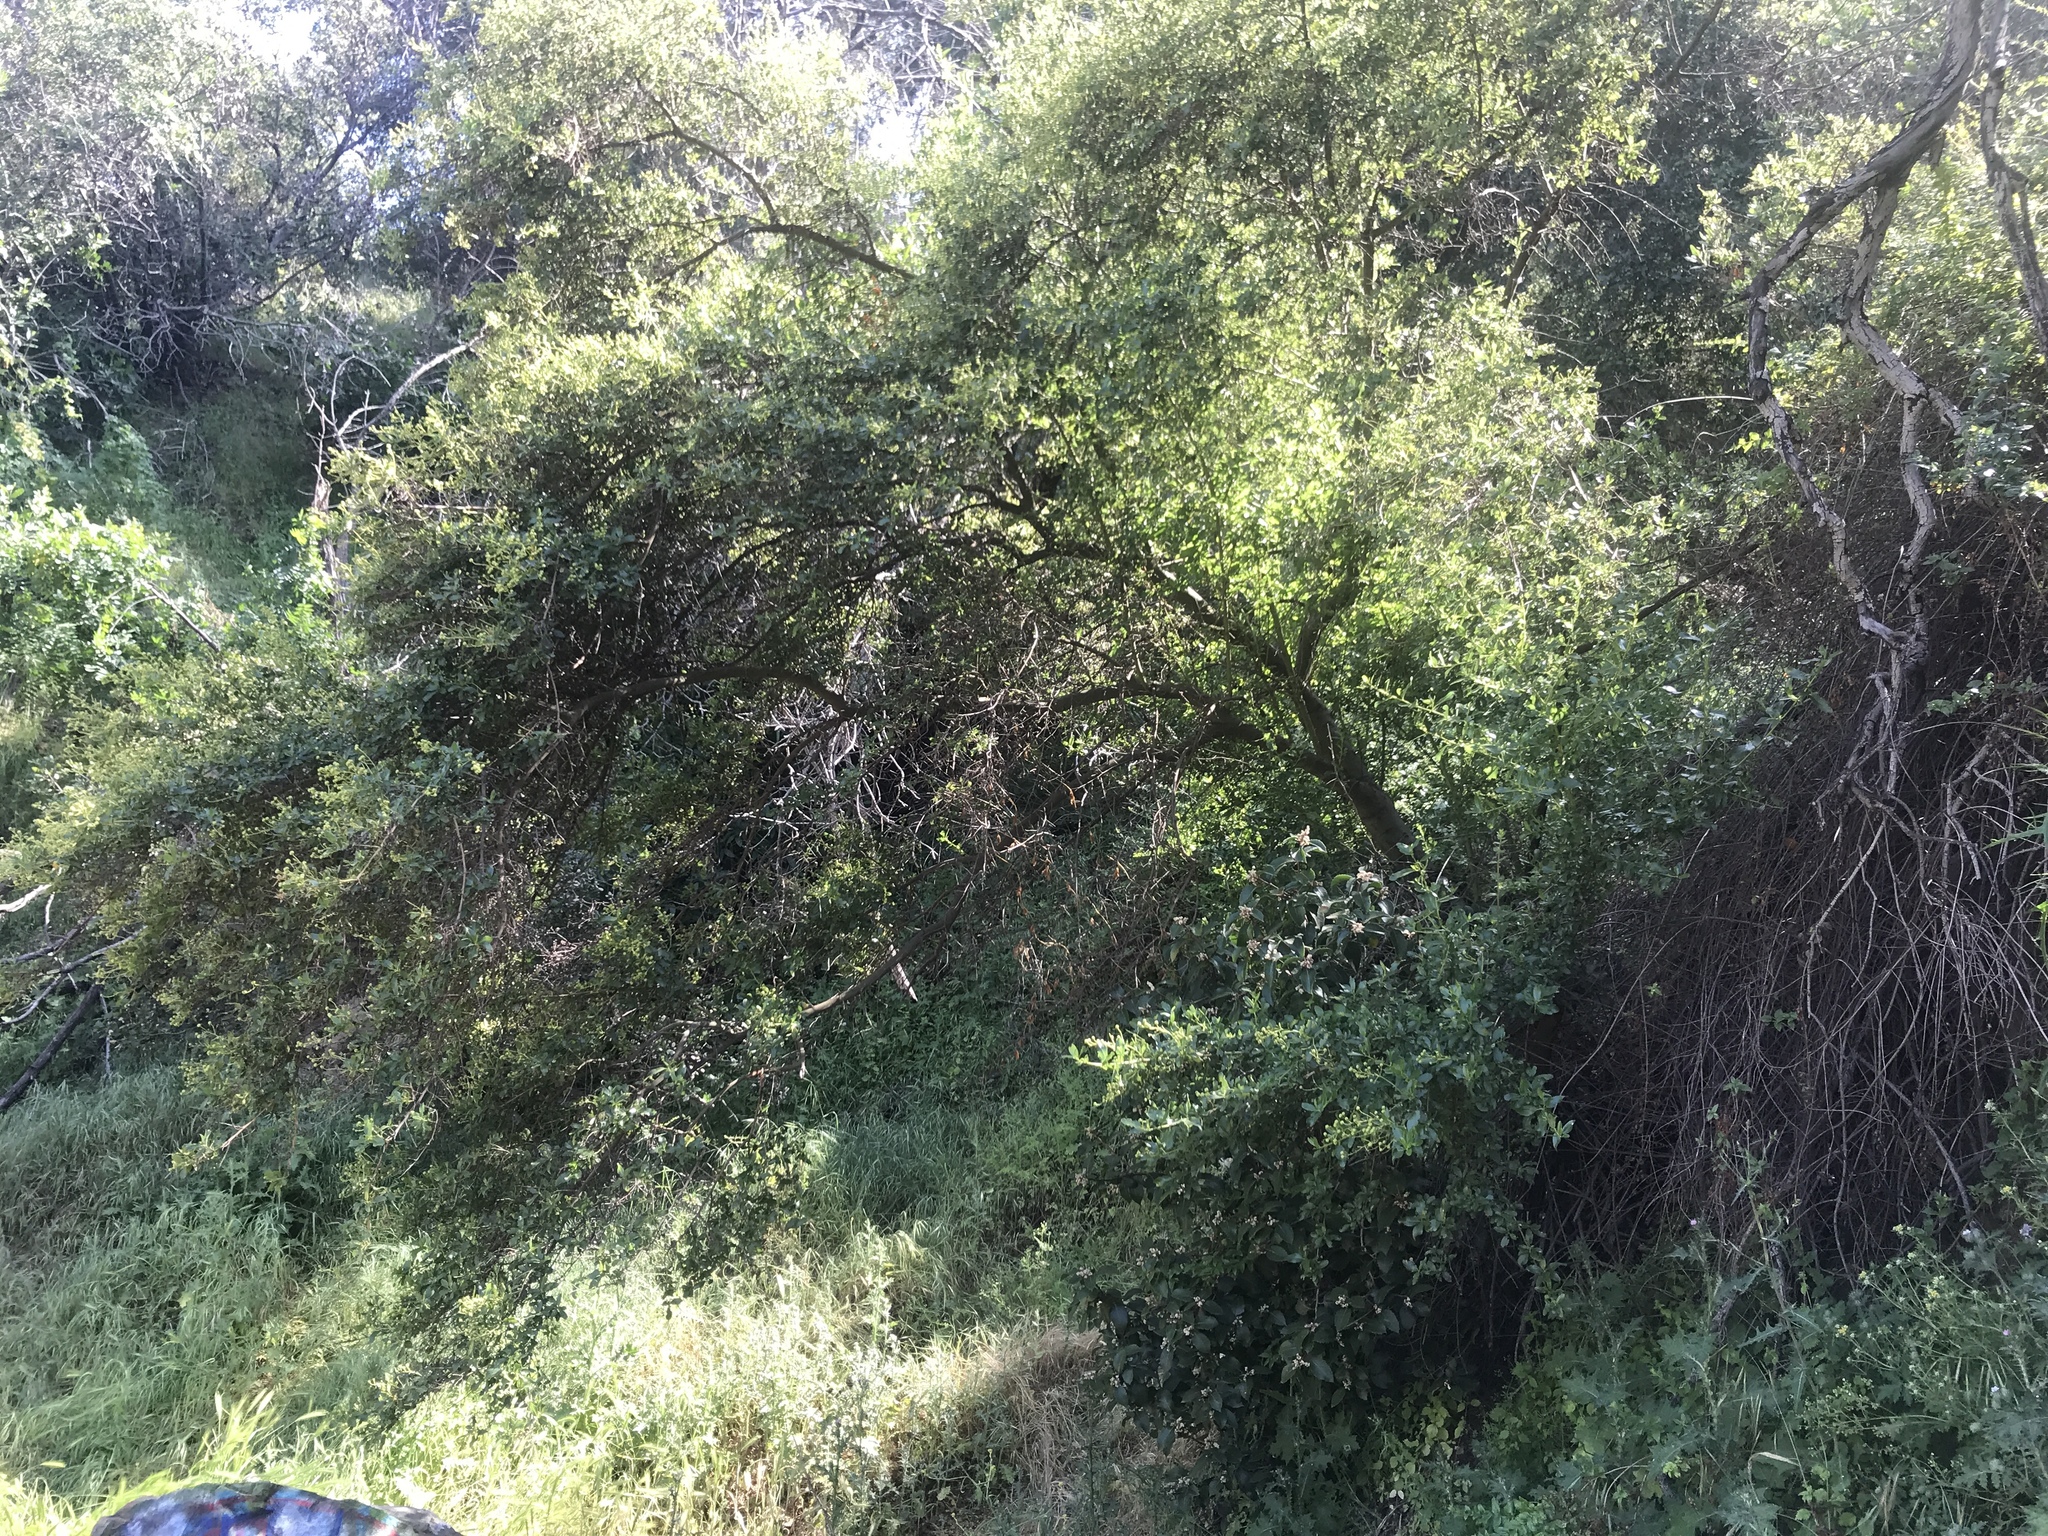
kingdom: Plantae
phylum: Tracheophyta
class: Magnoliopsida
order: Rosales
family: Rhamnaceae
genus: Ceanothus
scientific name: Ceanothus spinosus
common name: Greenbark whitethorn
